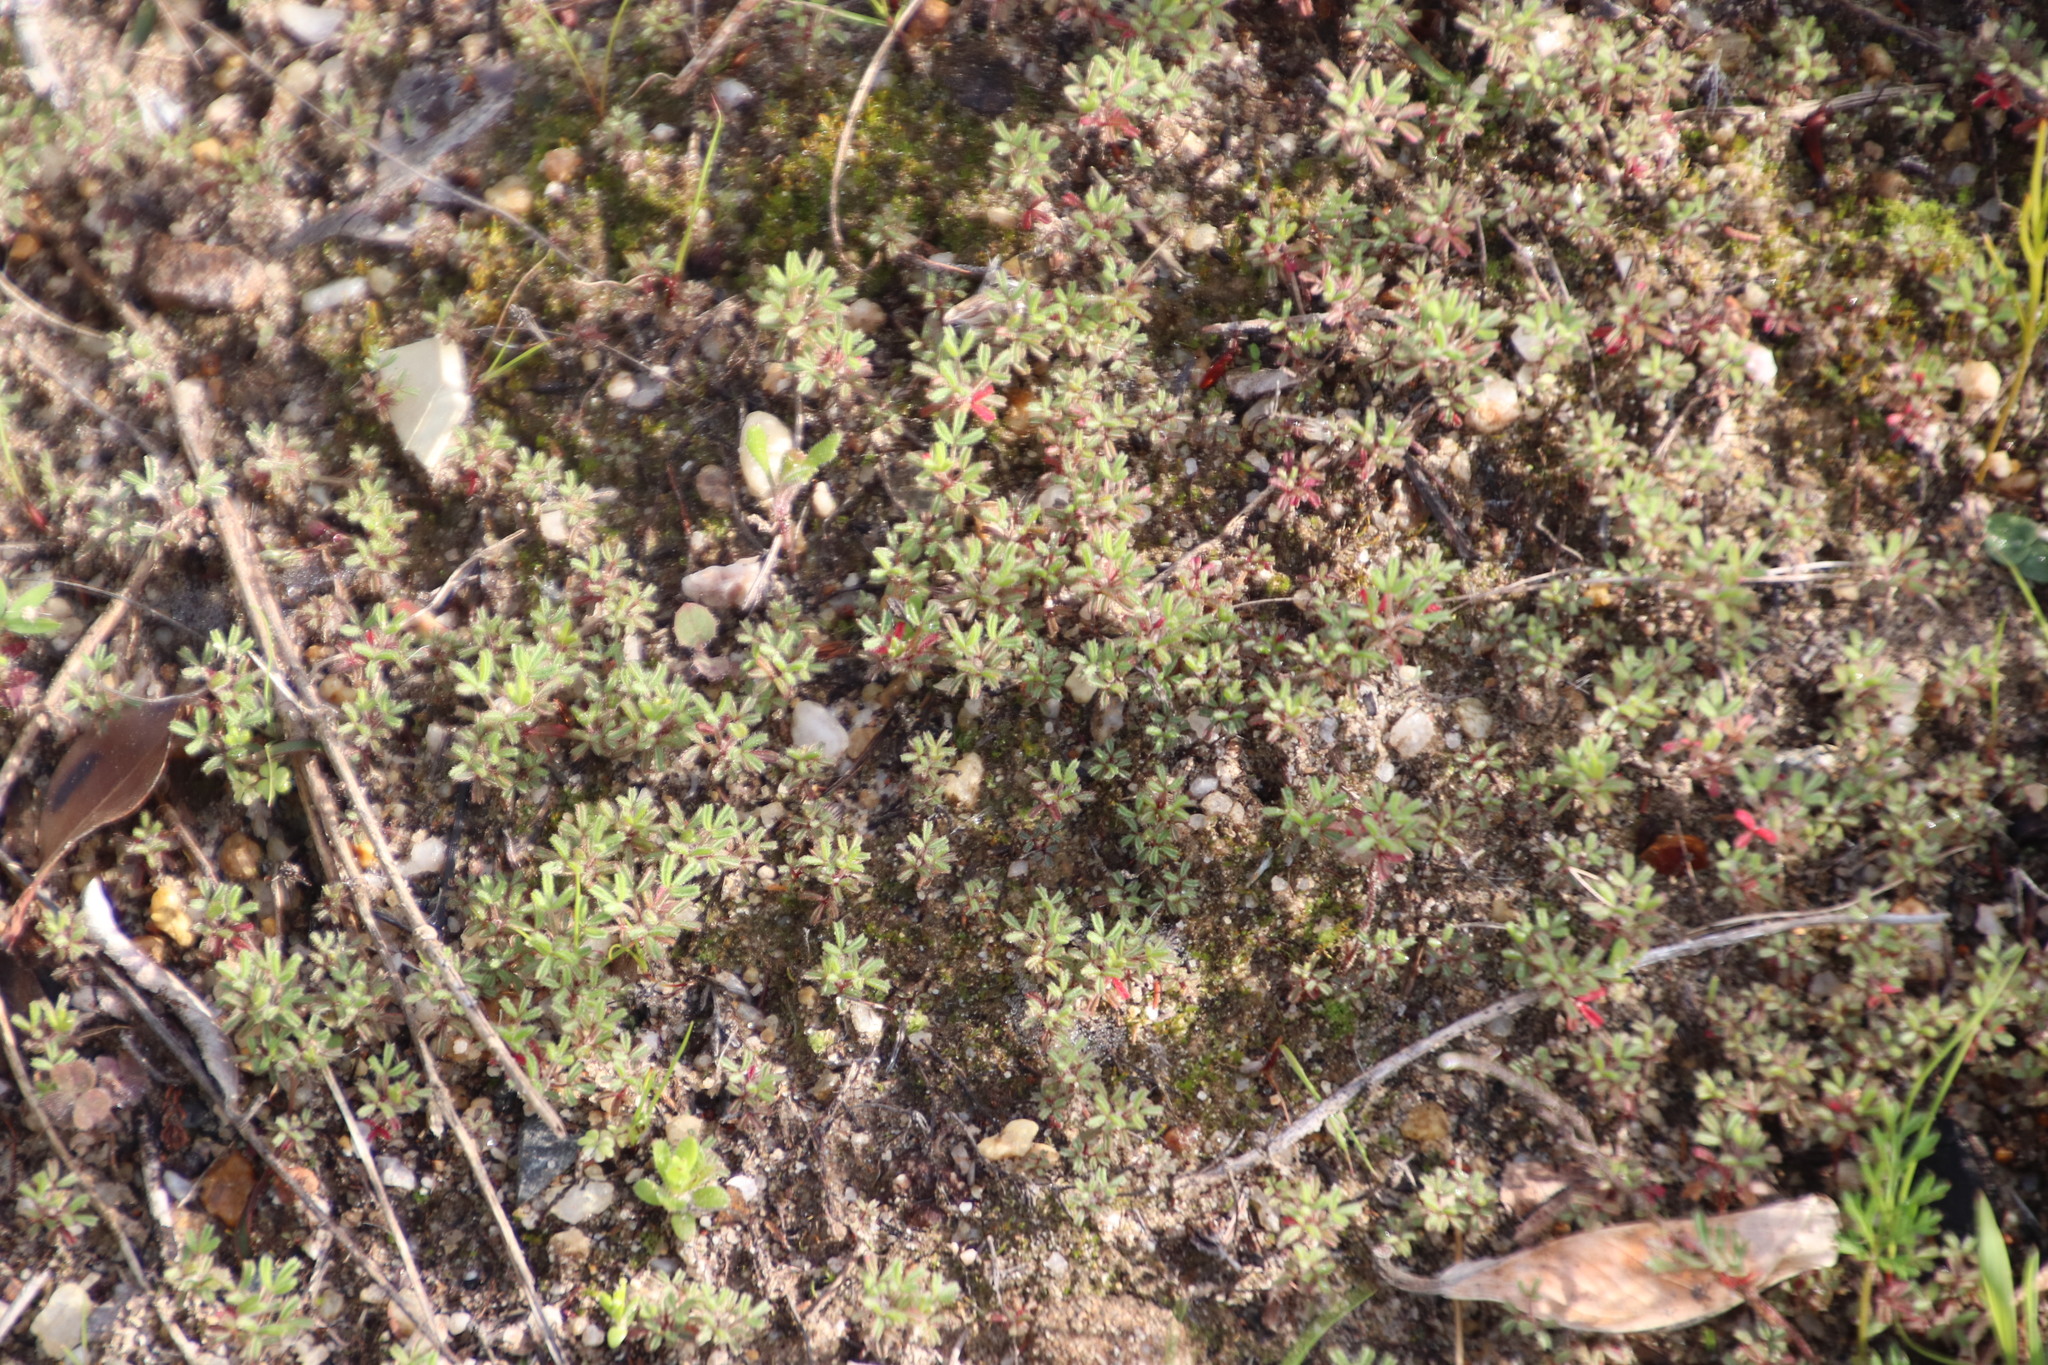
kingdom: Plantae
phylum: Tracheophyta
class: Magnoliopsida
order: Oxalidales
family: Oxalidaceae
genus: Oxalis
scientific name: Oxalis glabra
